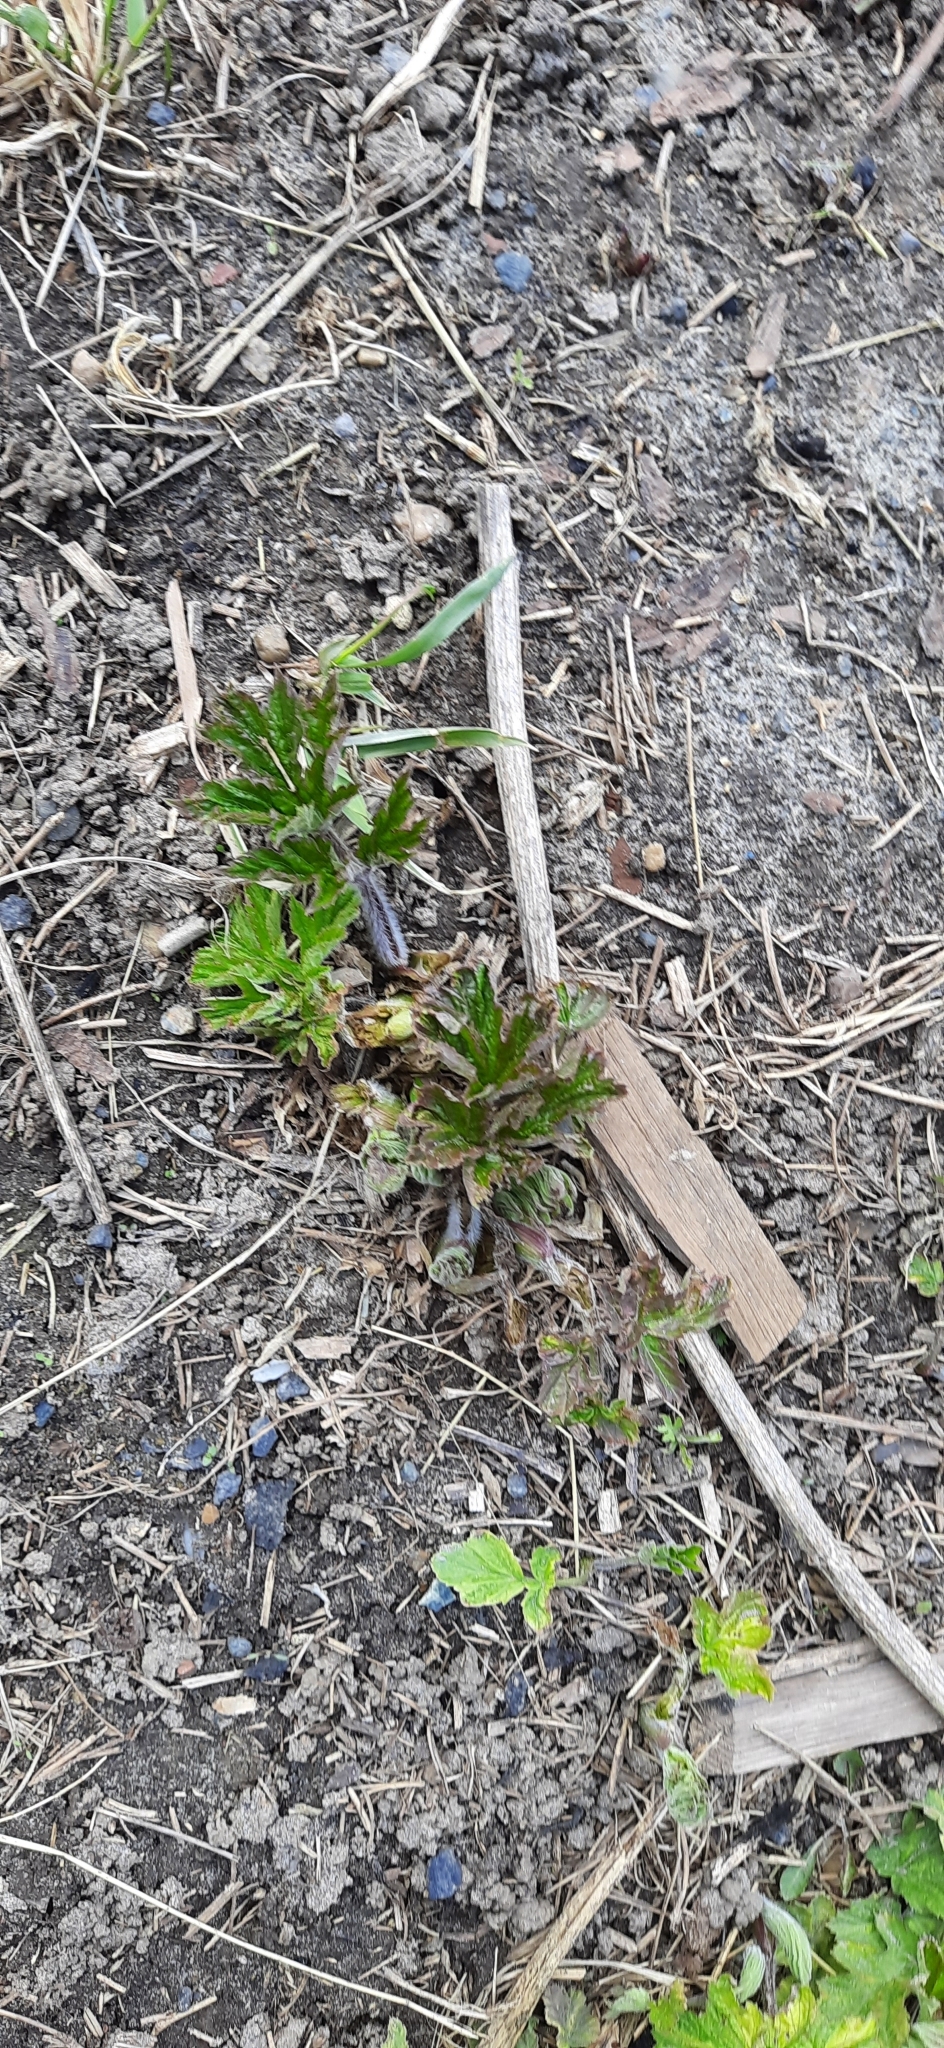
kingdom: Plantae
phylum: Tracheophyta
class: Magnoliopsida
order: Apiales
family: Apiaceae
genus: Heracleum
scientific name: Heracleum sphondylium
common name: Hogweed
